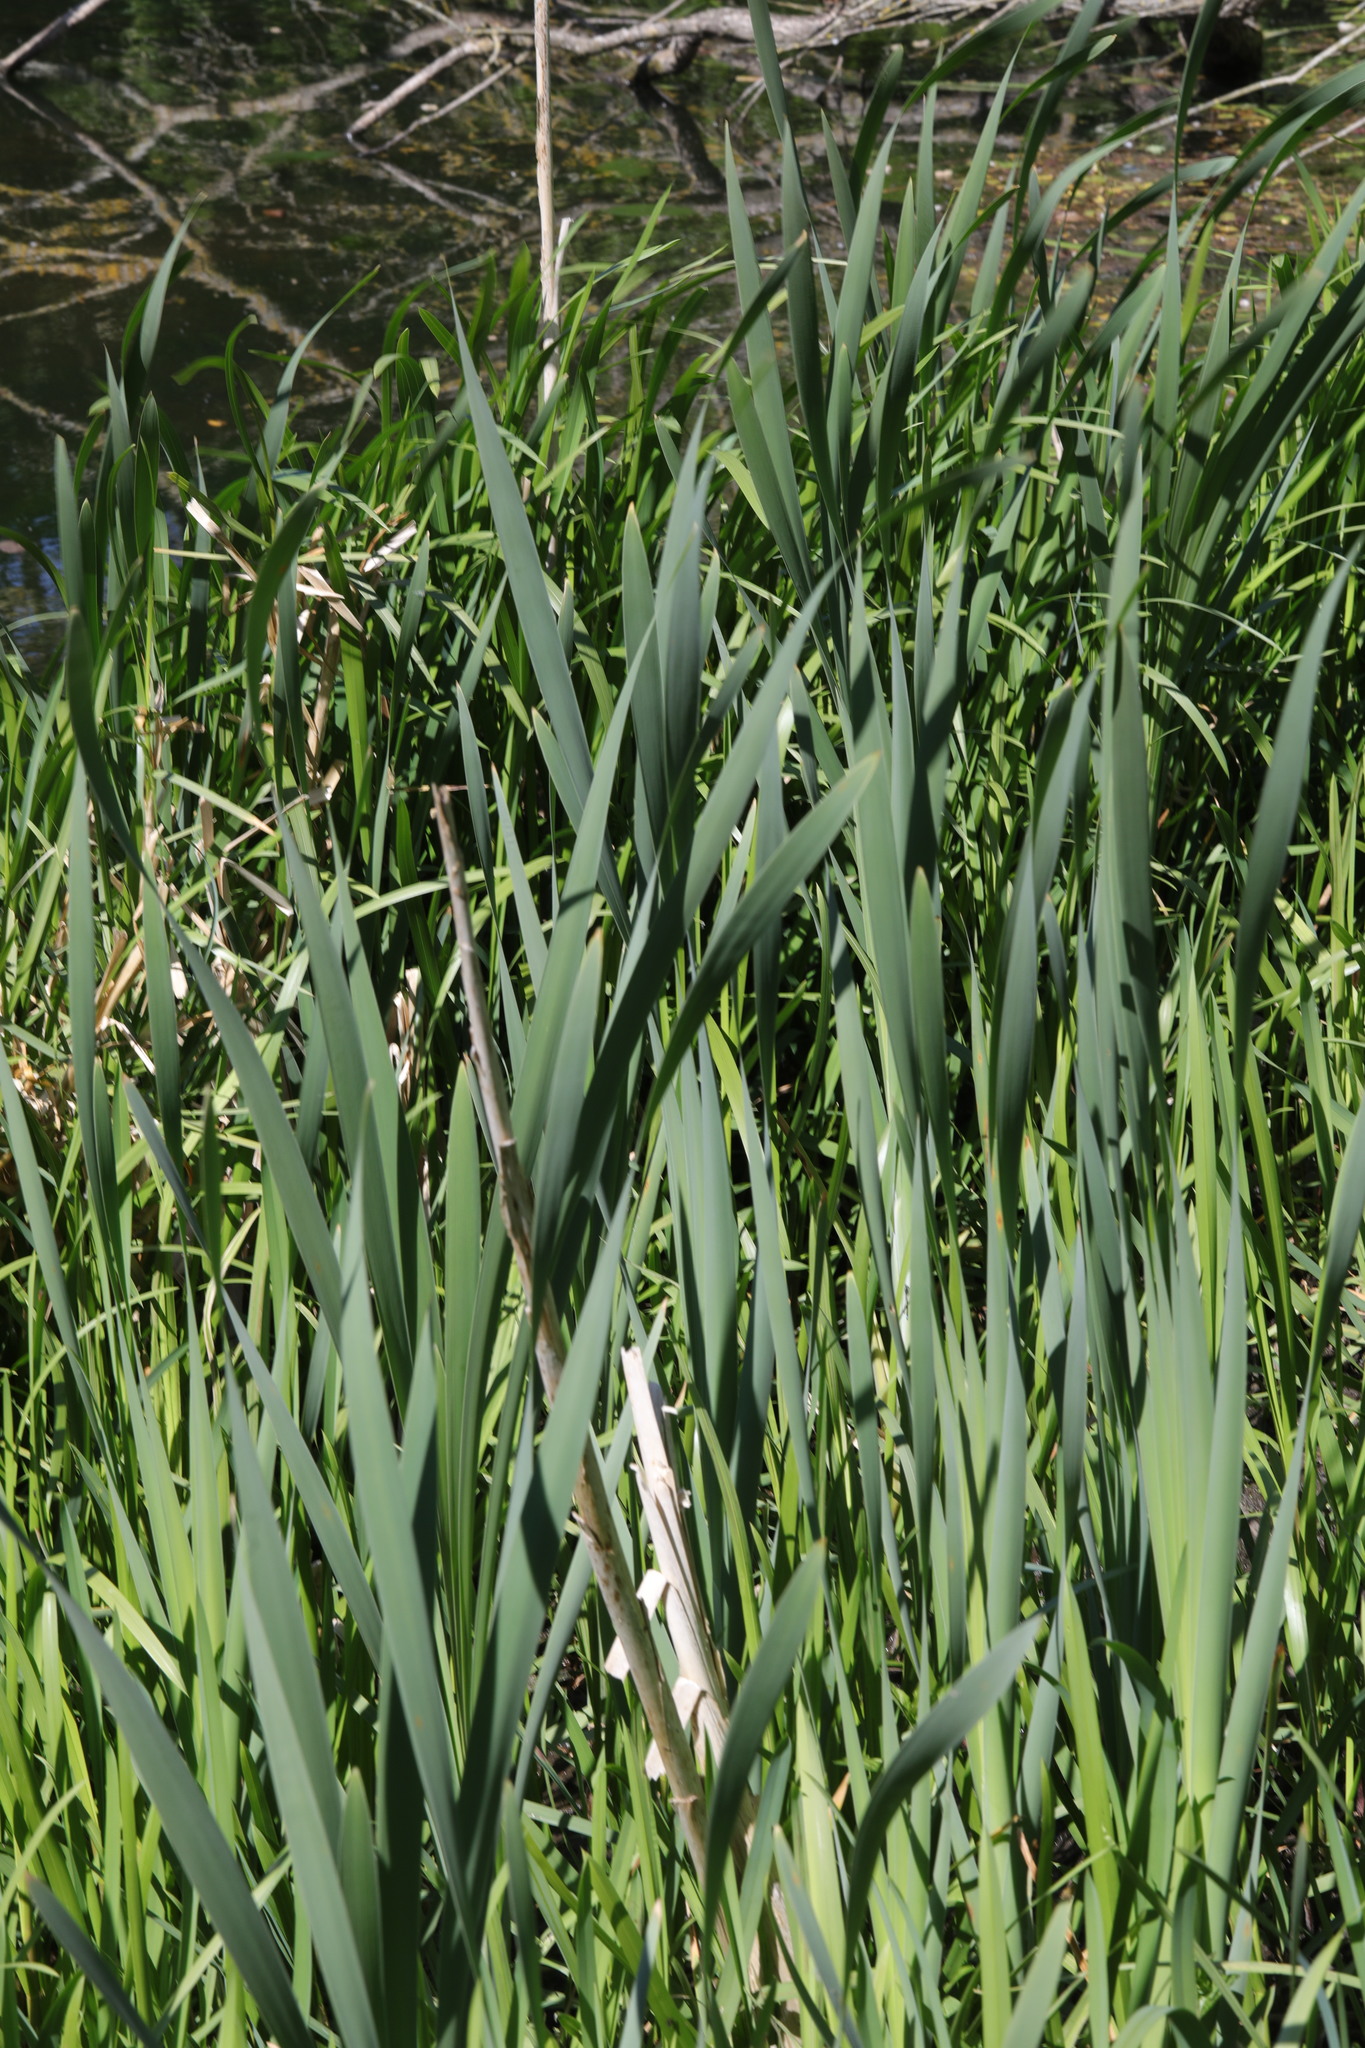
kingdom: Plantae
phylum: Tracheophyta
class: Liliopsida
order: Poales
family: Typhaceae
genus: Typha
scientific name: Typha latifolia
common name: Broadleaf cattail
